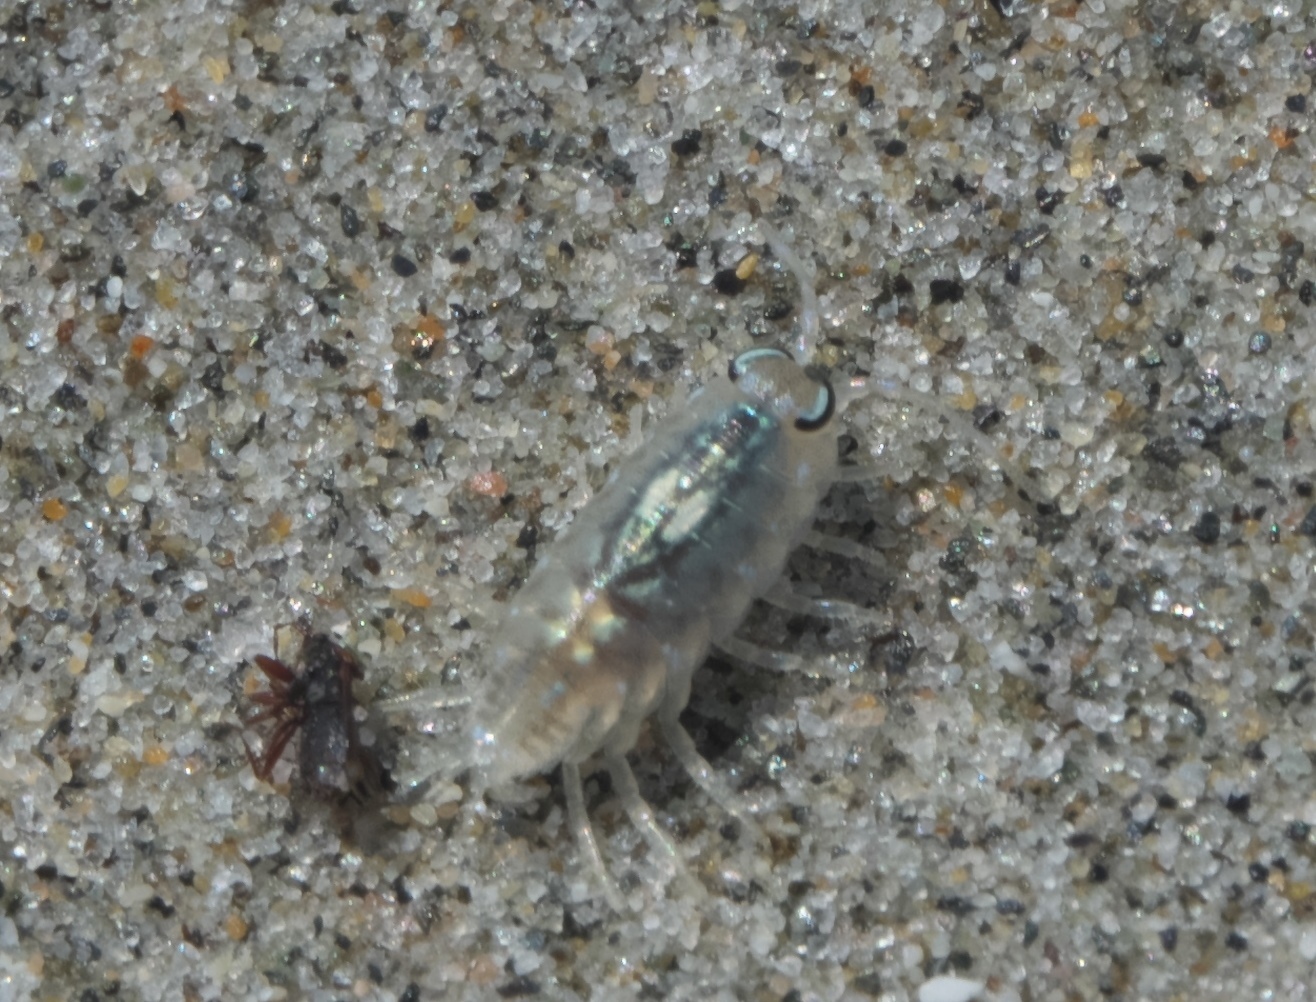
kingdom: Animalia
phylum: Arthropoda
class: Malacostraca
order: Isopoda
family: Scyphacidae
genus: Scyphax
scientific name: Scyphax ornatus
